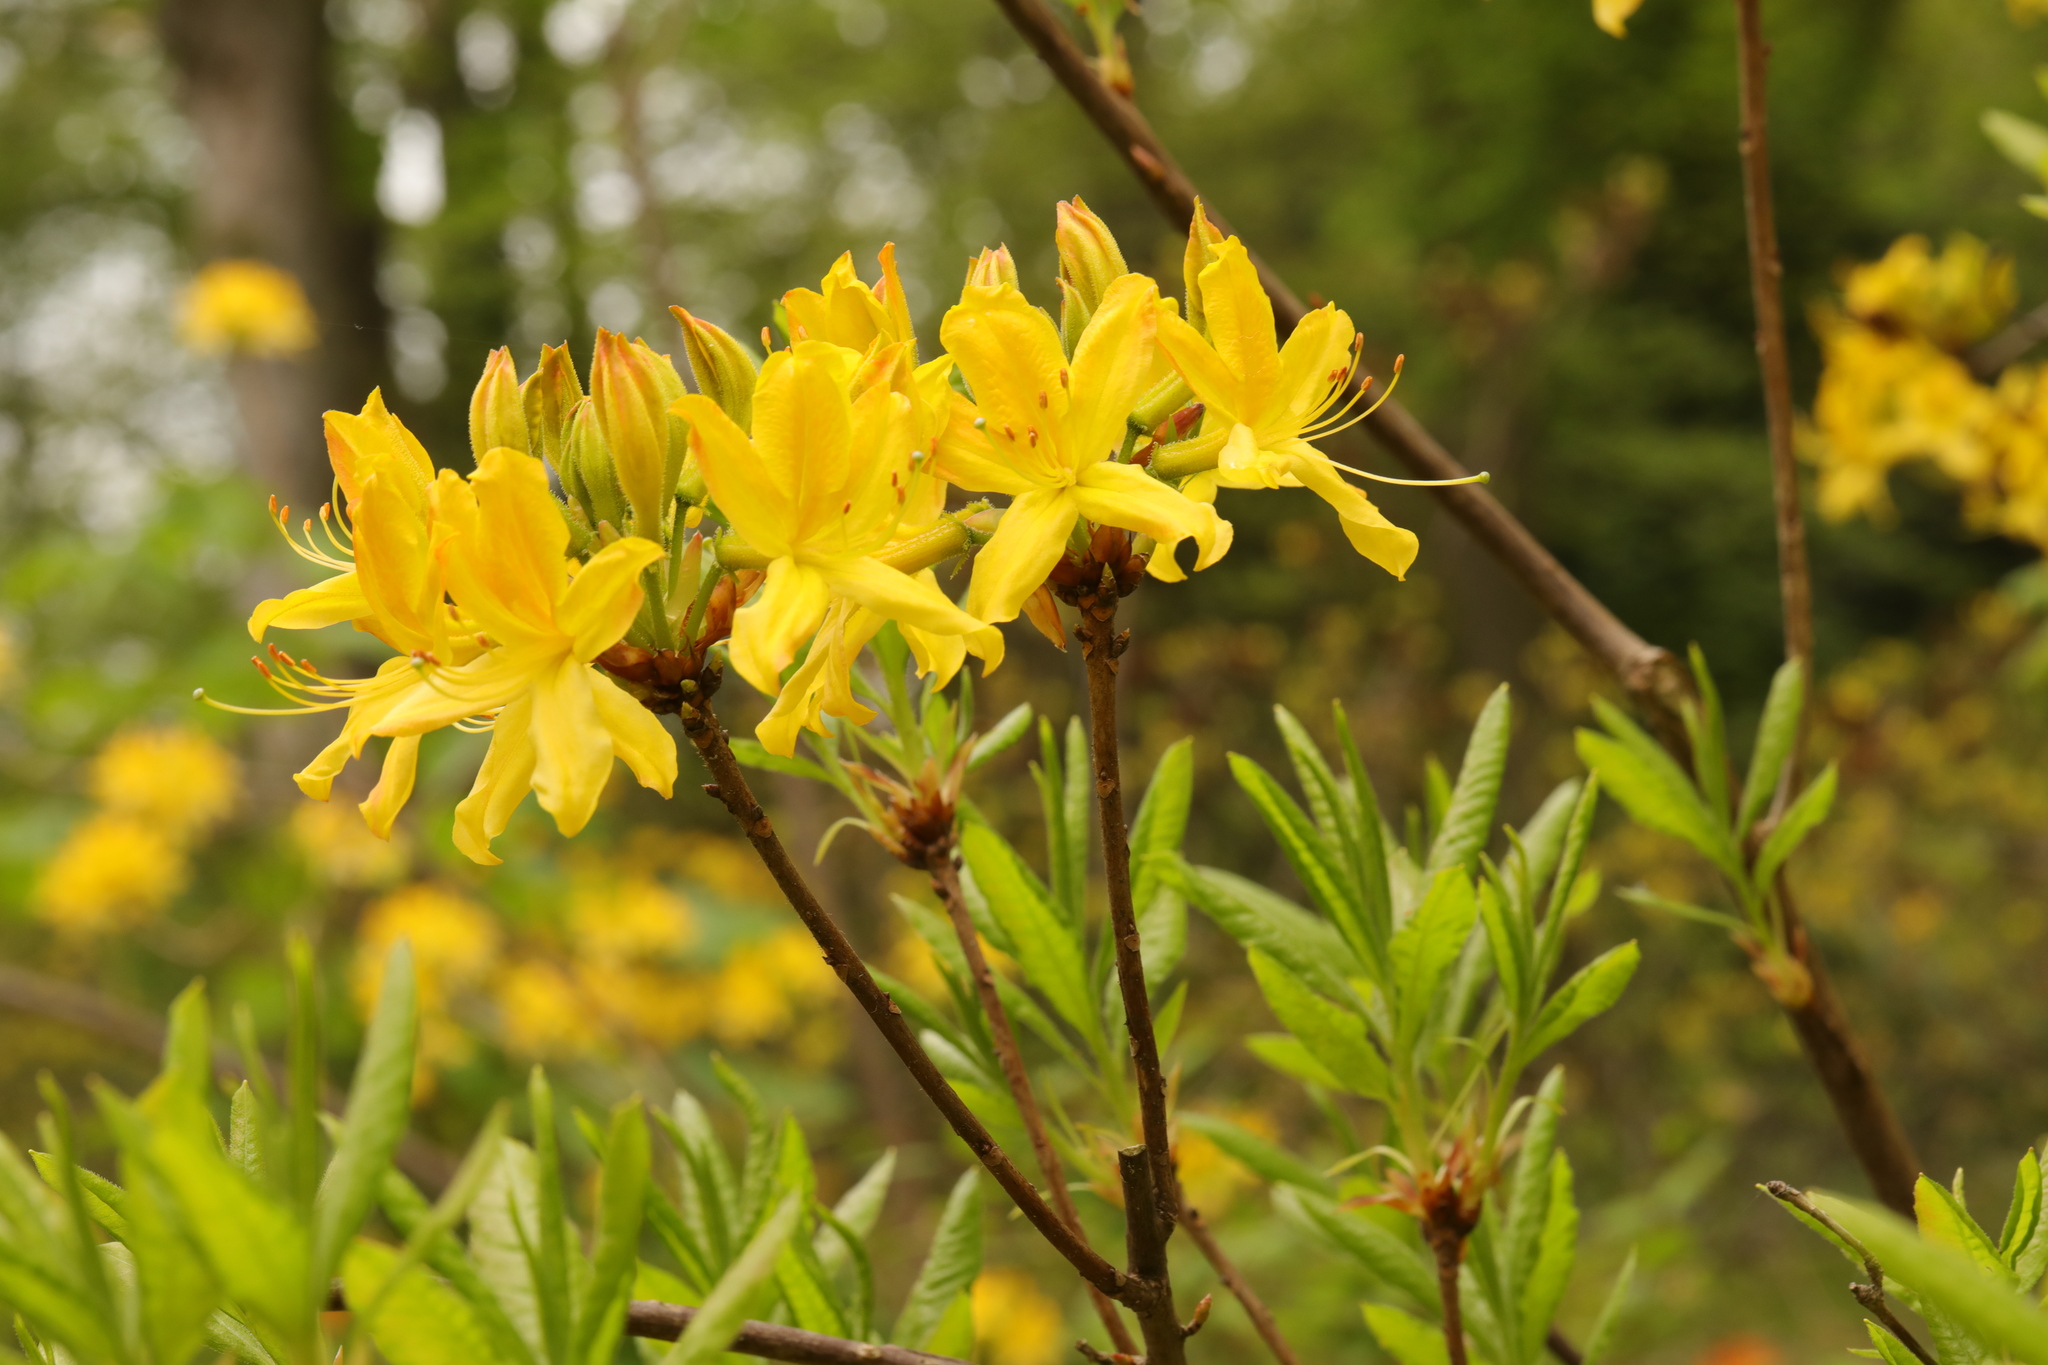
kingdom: Plantae
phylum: Tracheophyta
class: Magnoliopsida
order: Ericales
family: Ericaceae
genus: Rhododendron
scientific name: Rhododendron luteum
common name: Yellow azalea
